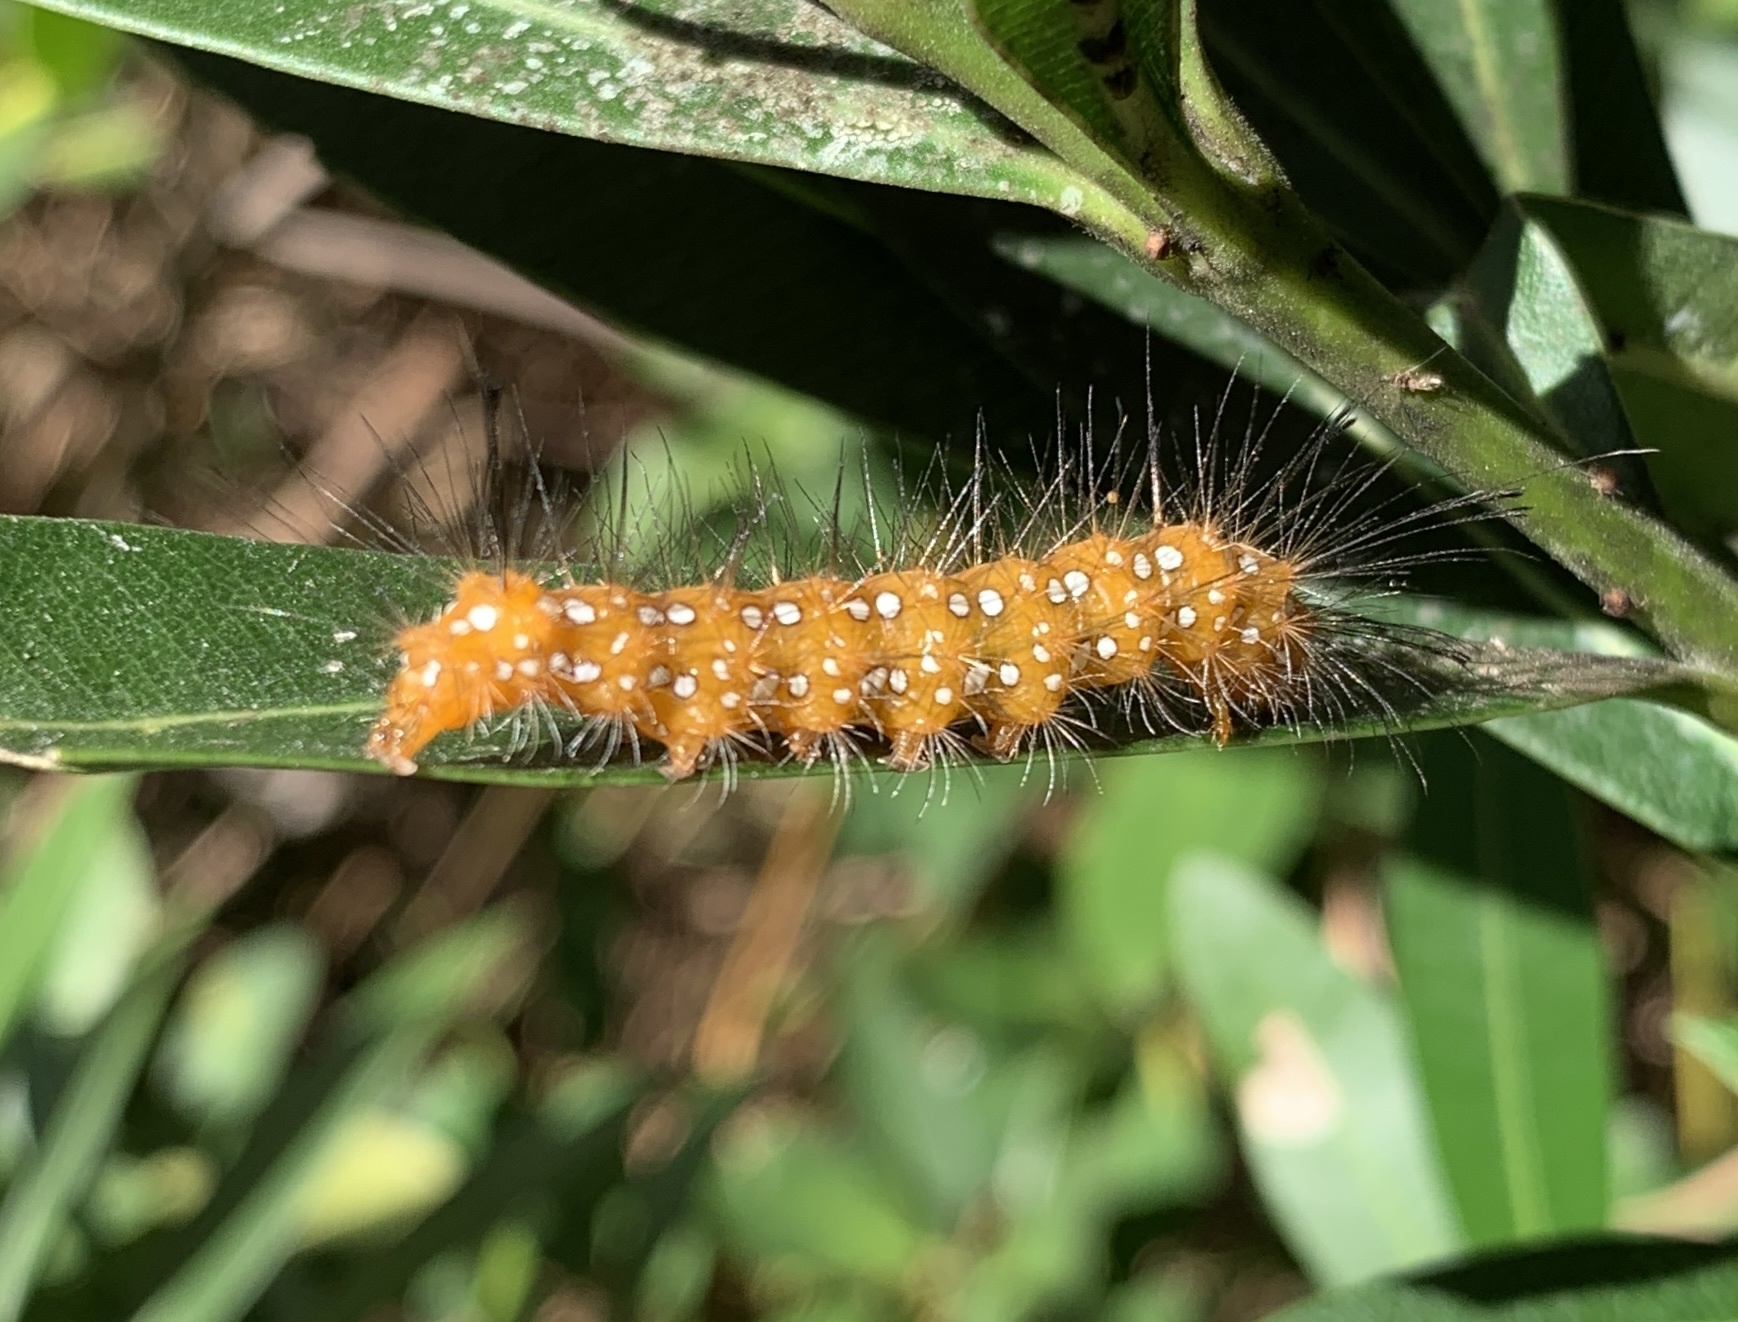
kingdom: Animalia
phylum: Arthropoda
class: Insecta
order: Lepidoptera
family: Erebidae
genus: Empyreuma
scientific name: Empyreuma pugione
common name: Spotted oleander caterpillar moth
